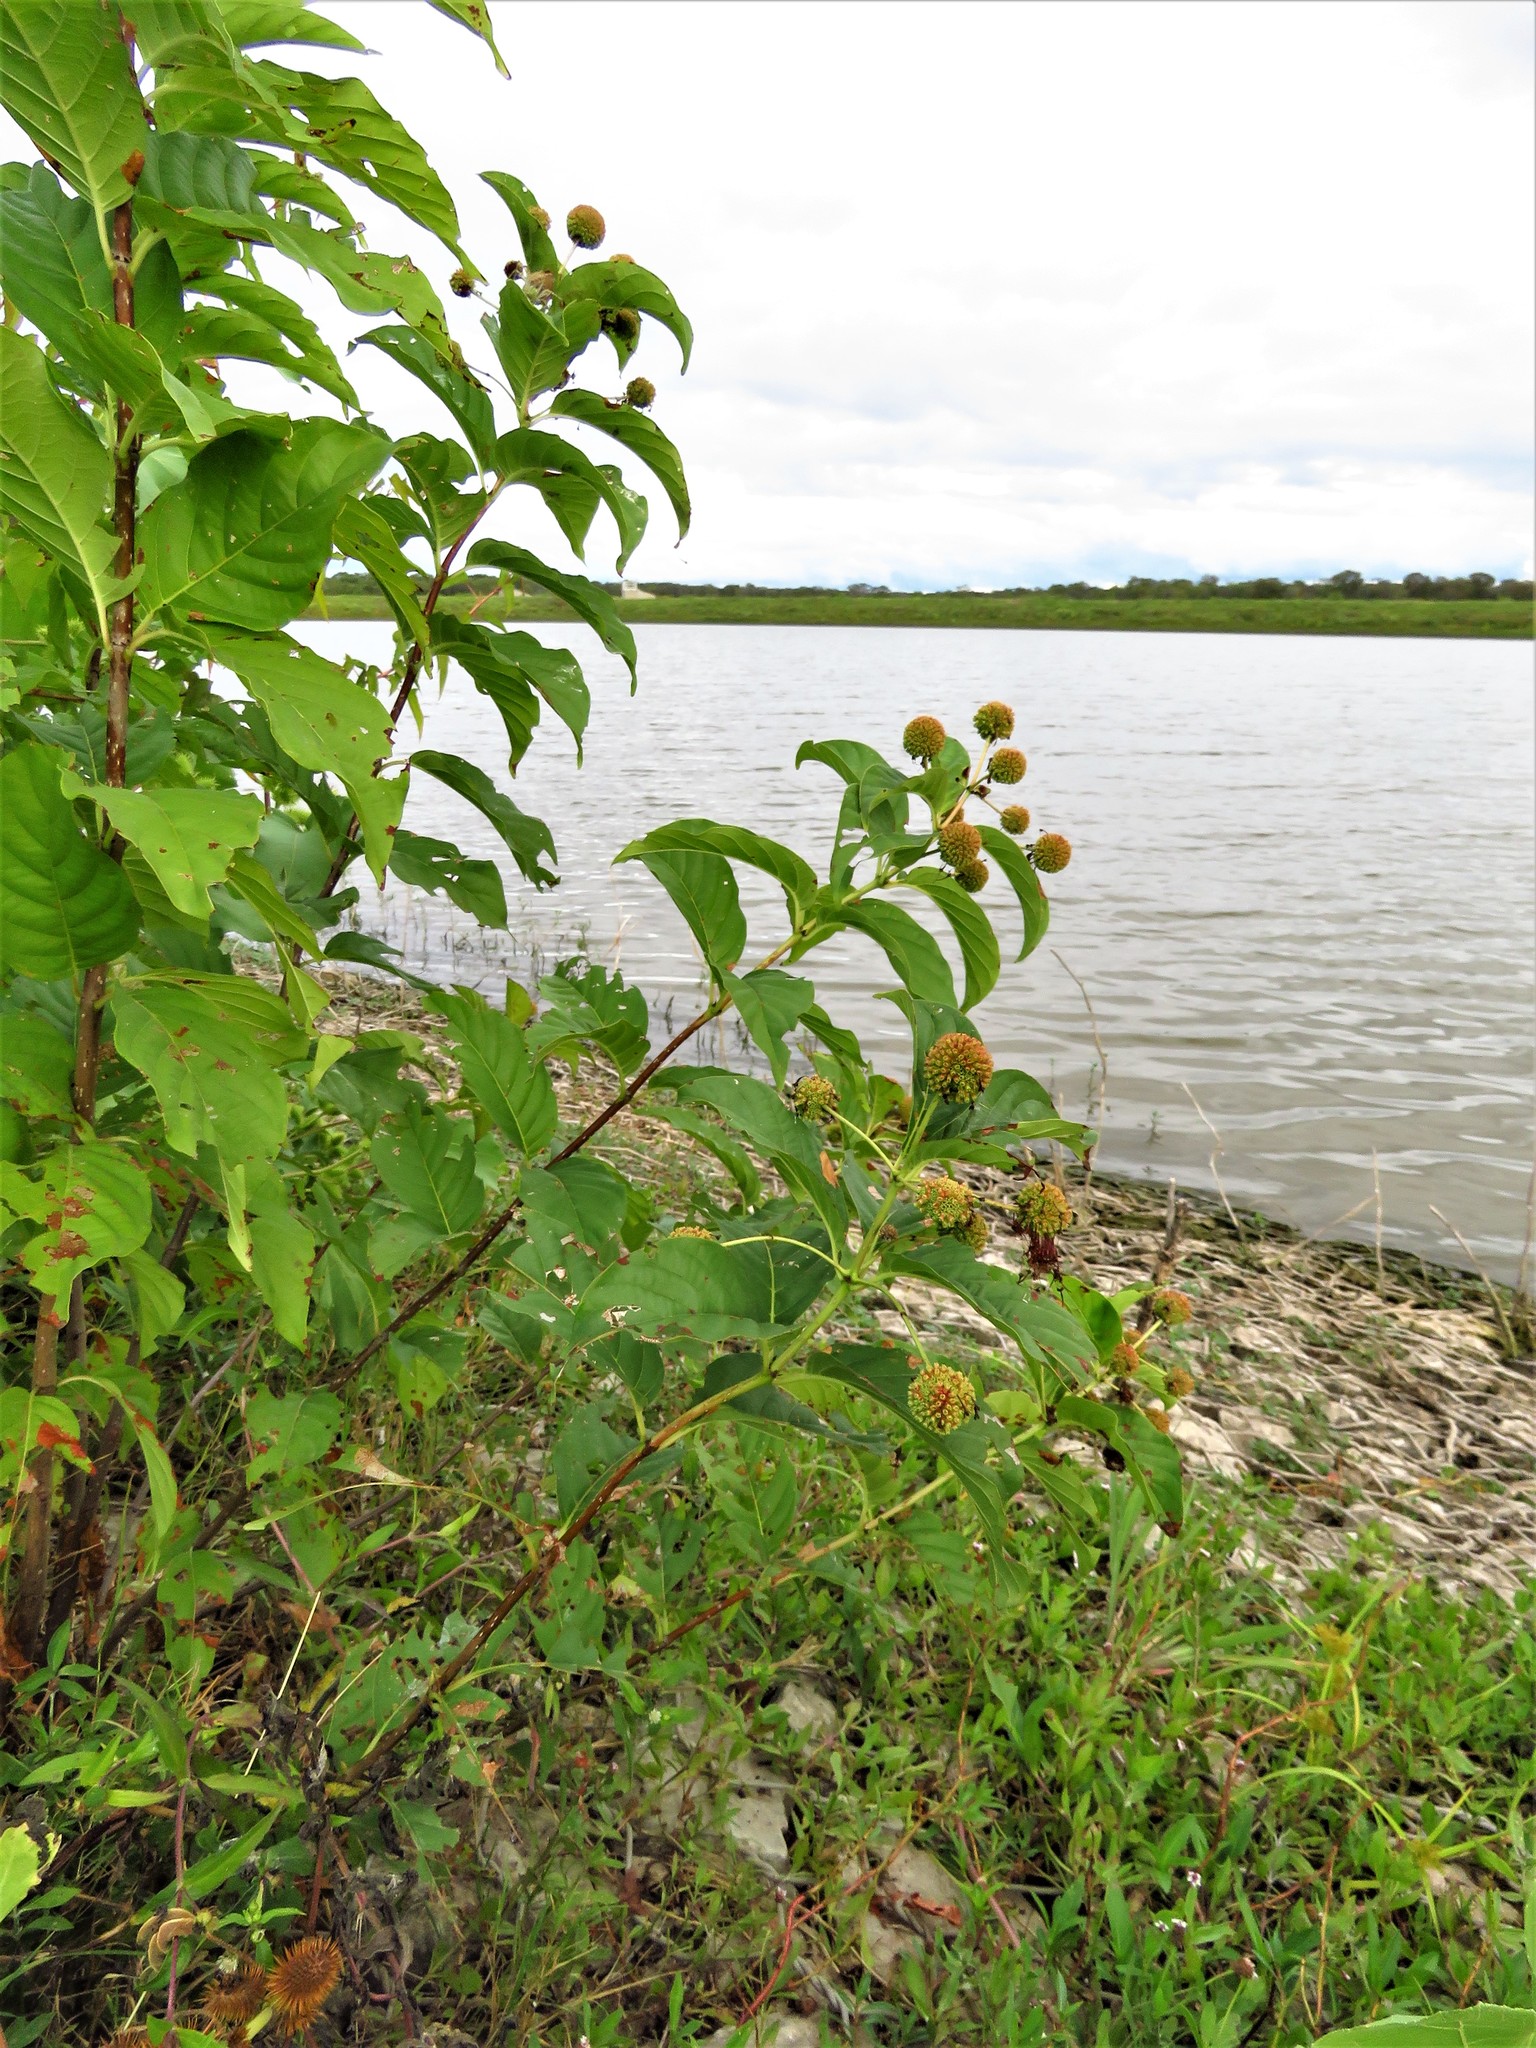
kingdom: Plantae
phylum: Tracheophyta
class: Magnoliopsida
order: Gentianales
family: Rubiaceae
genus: Cephalanthus
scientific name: Cephalanthus occidentalis
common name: Button-willow
